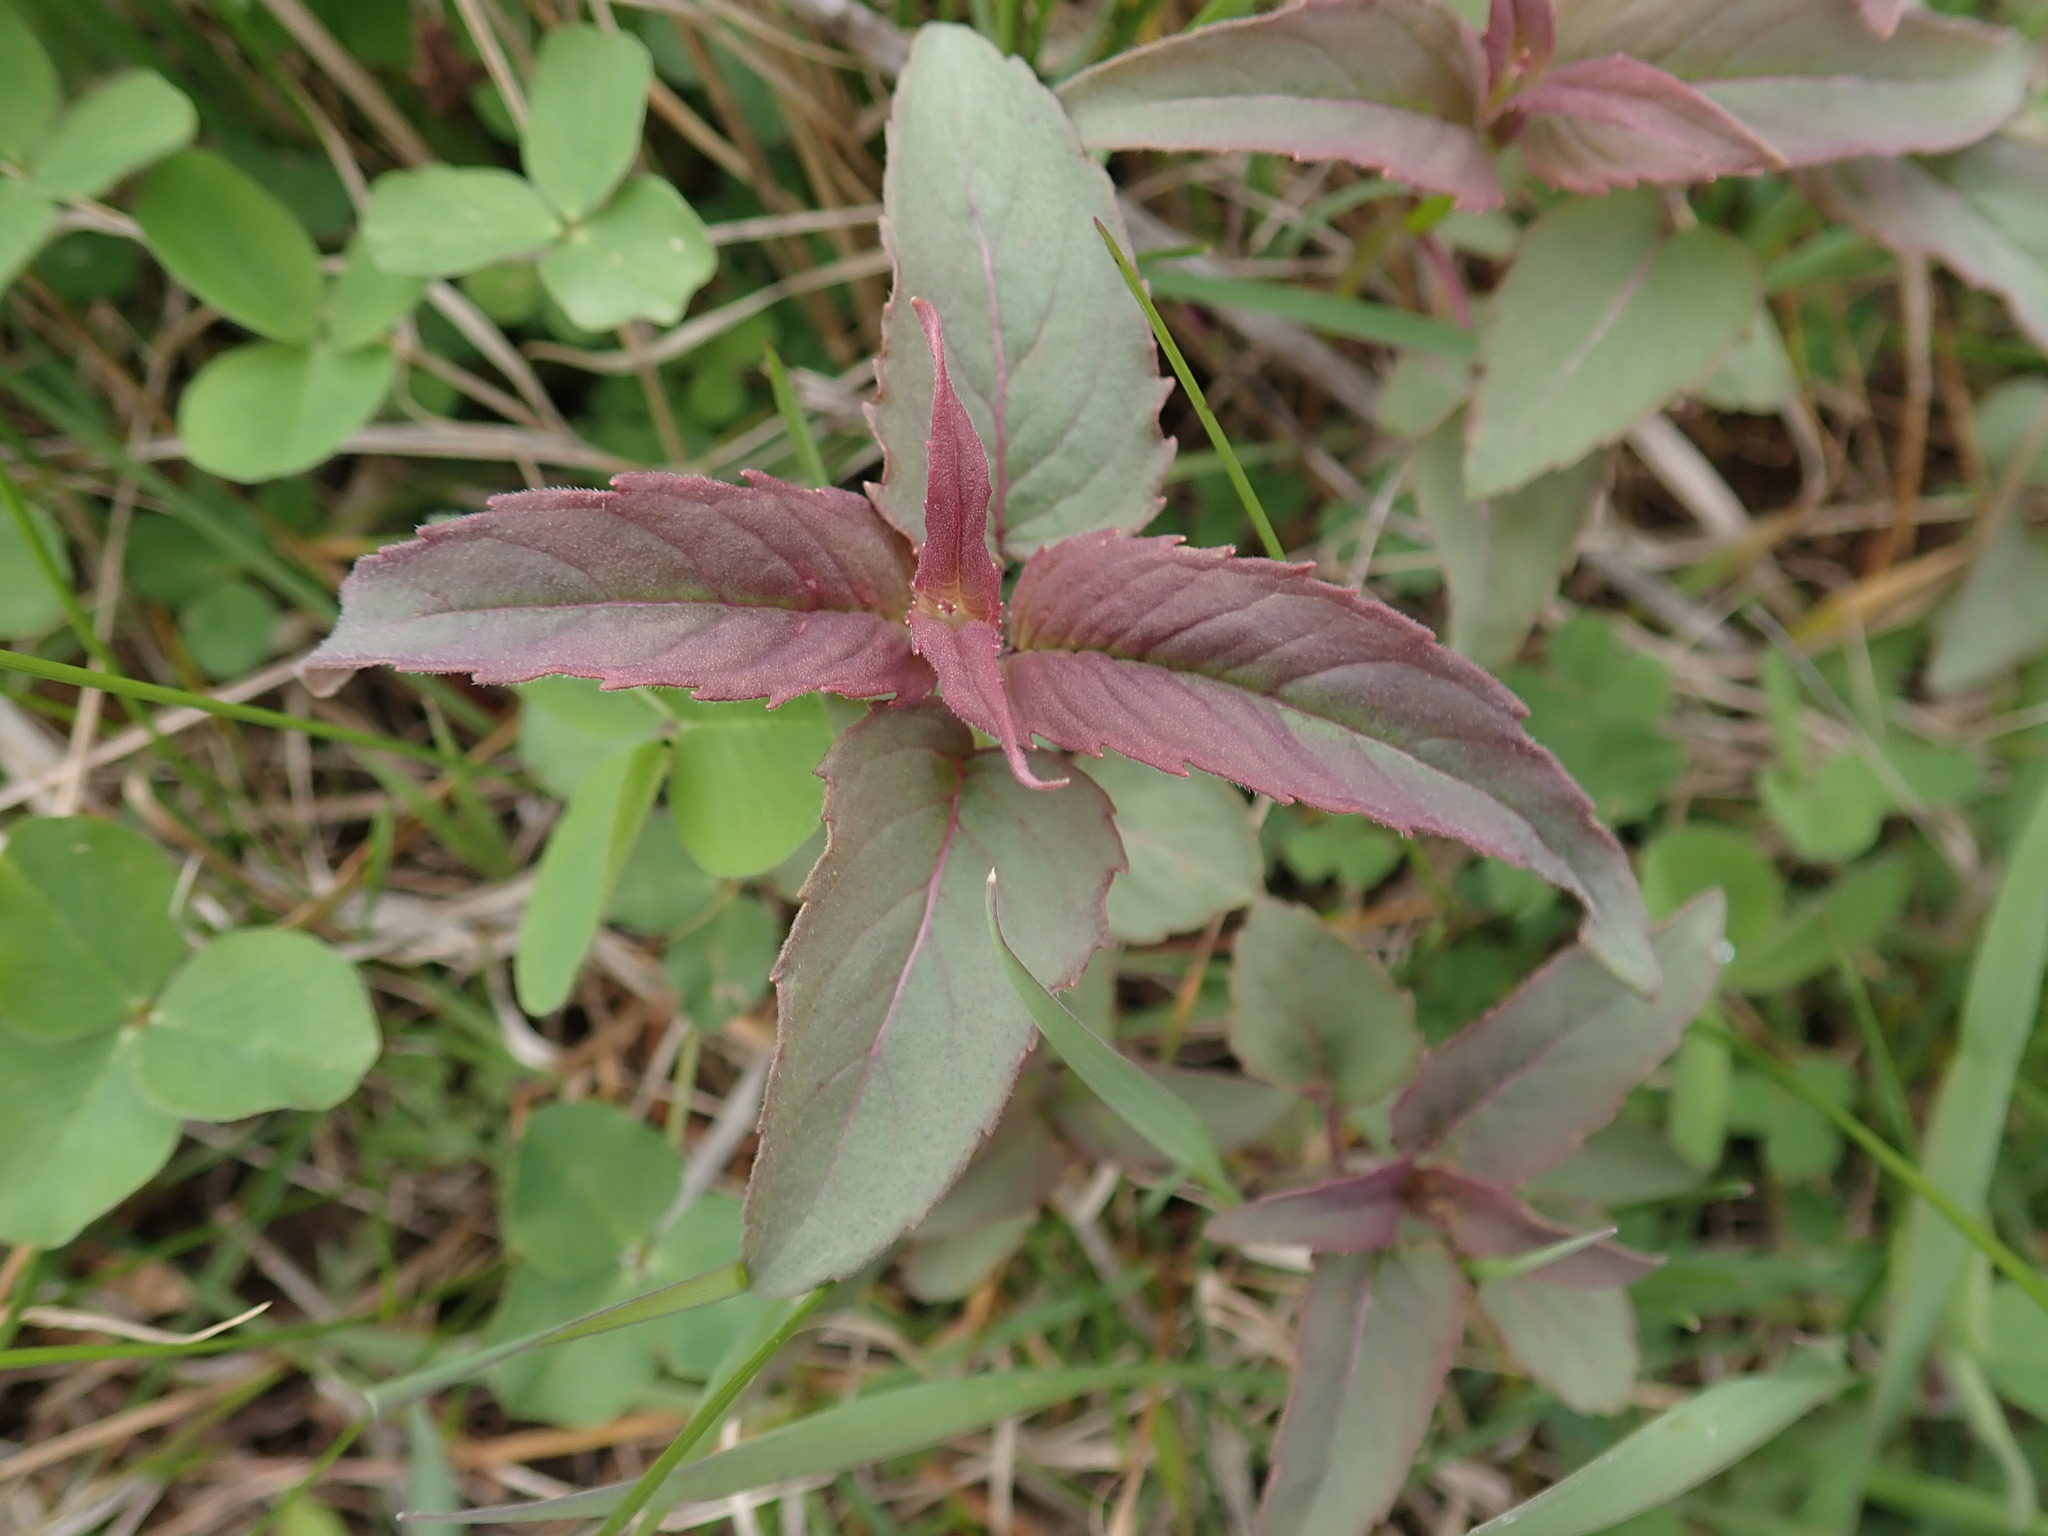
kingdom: Plantae
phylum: Tracheophyta
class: Magnoliopsida
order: Lamiales
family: Lamiaceae
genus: Monarda
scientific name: Monarda fistulosa
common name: Purple beebalm
